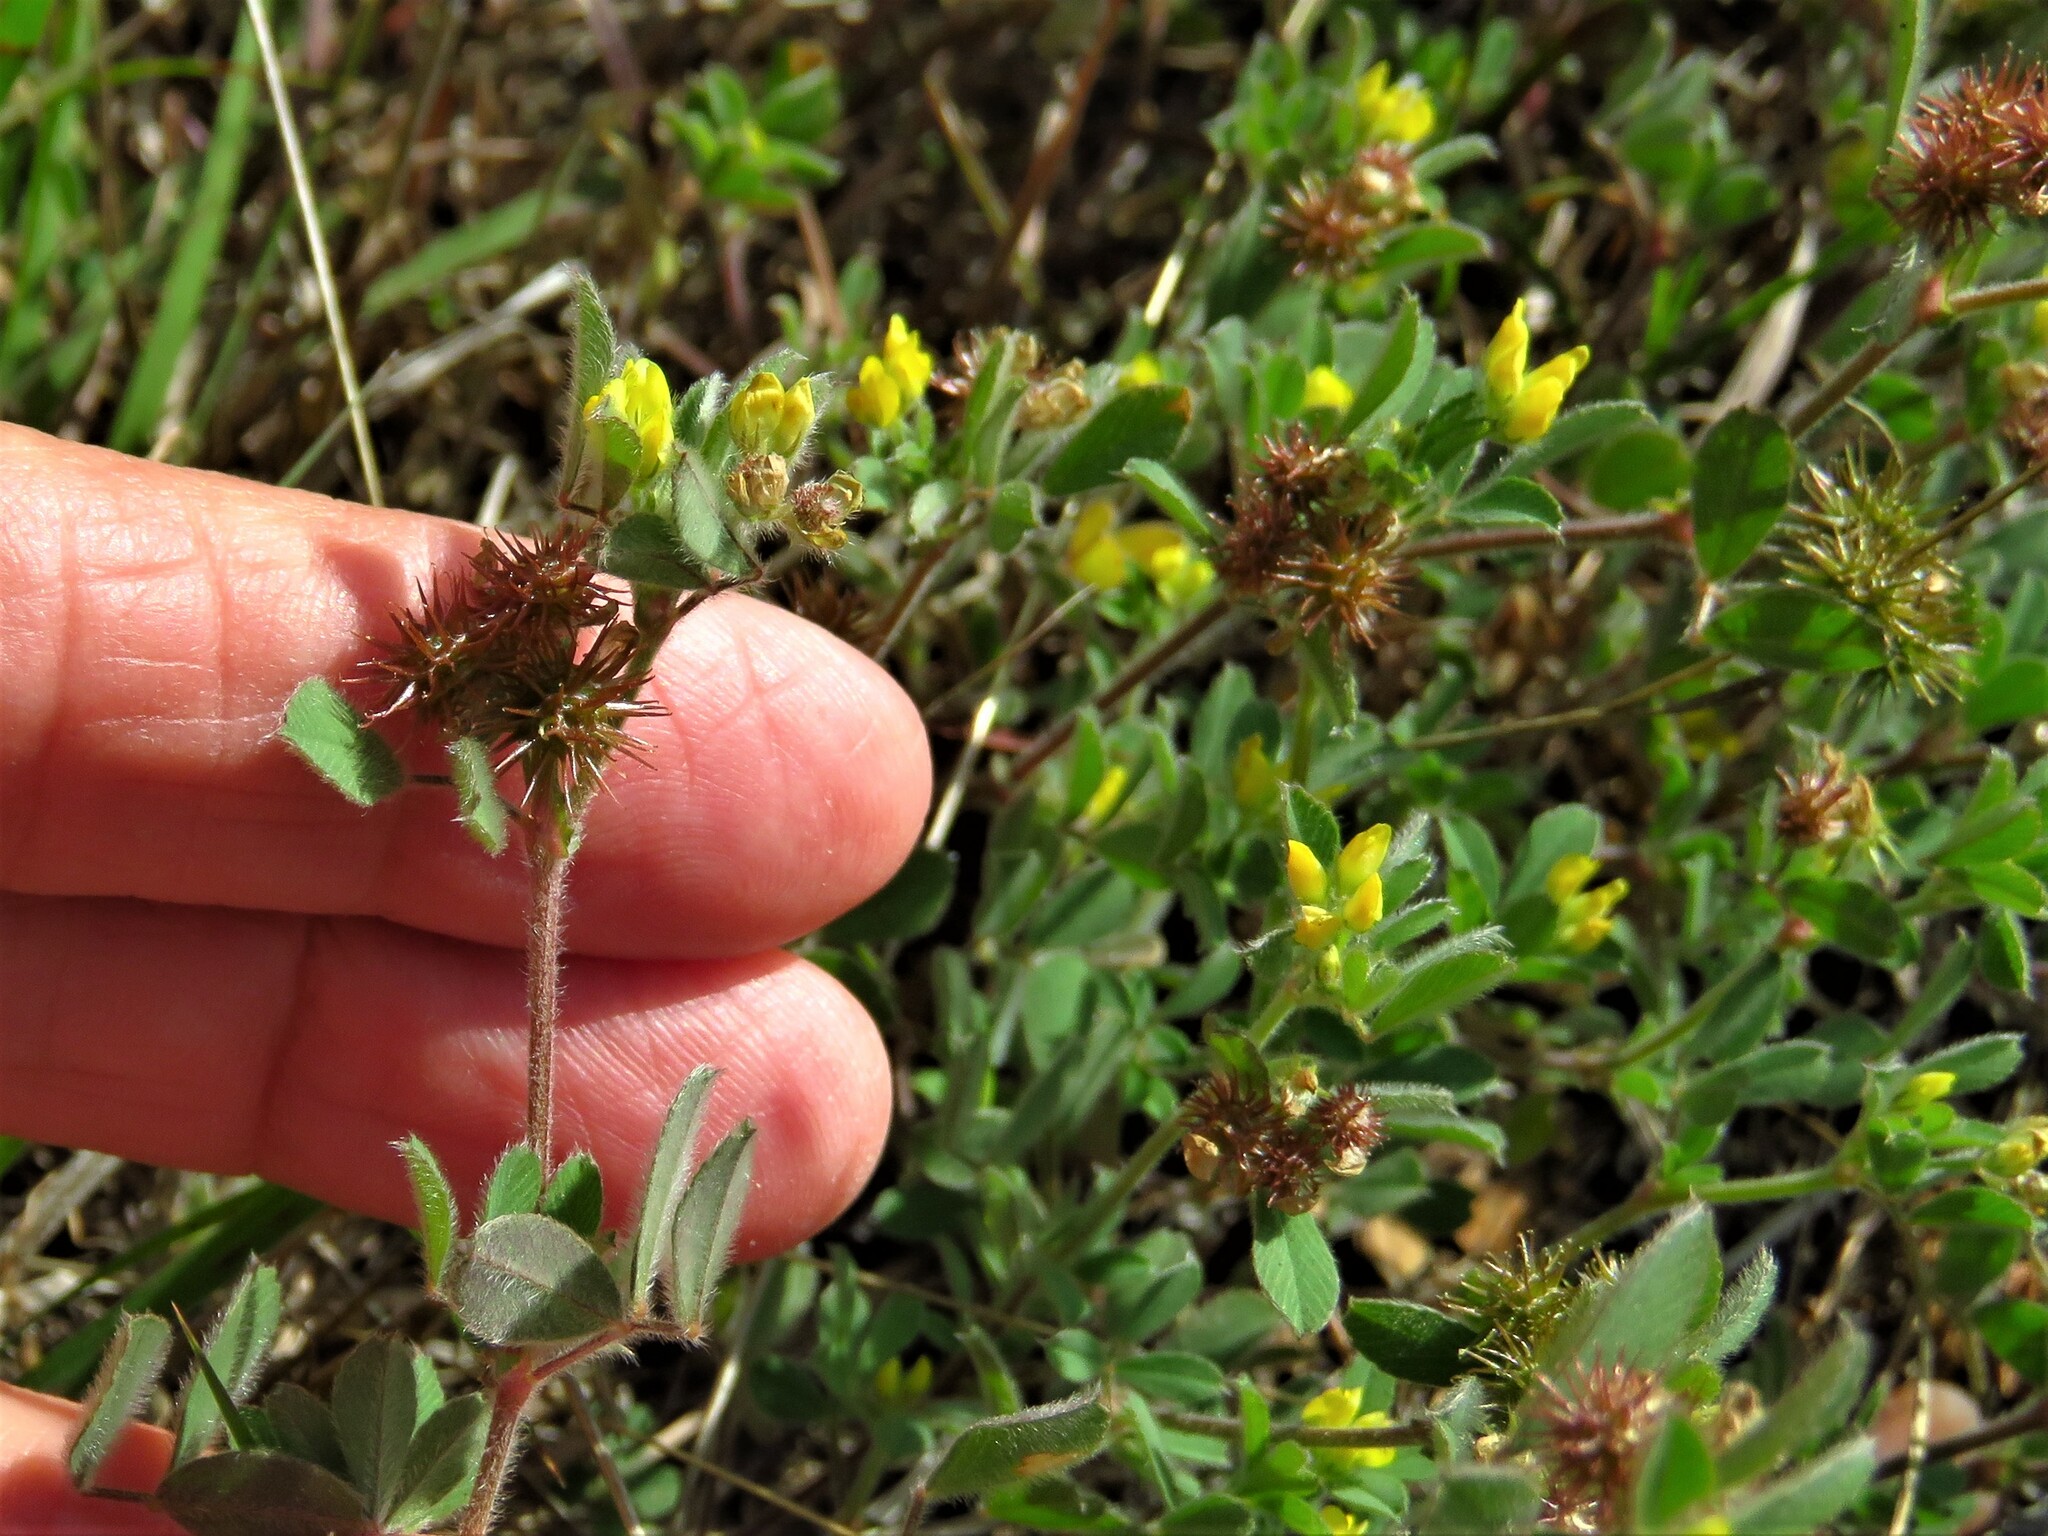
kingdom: Plantae
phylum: Tracheophyta
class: Magnoliopsida
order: Fabales
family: Fabaceae
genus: Medicago
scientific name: Medicago minima
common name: Little bur-clover
